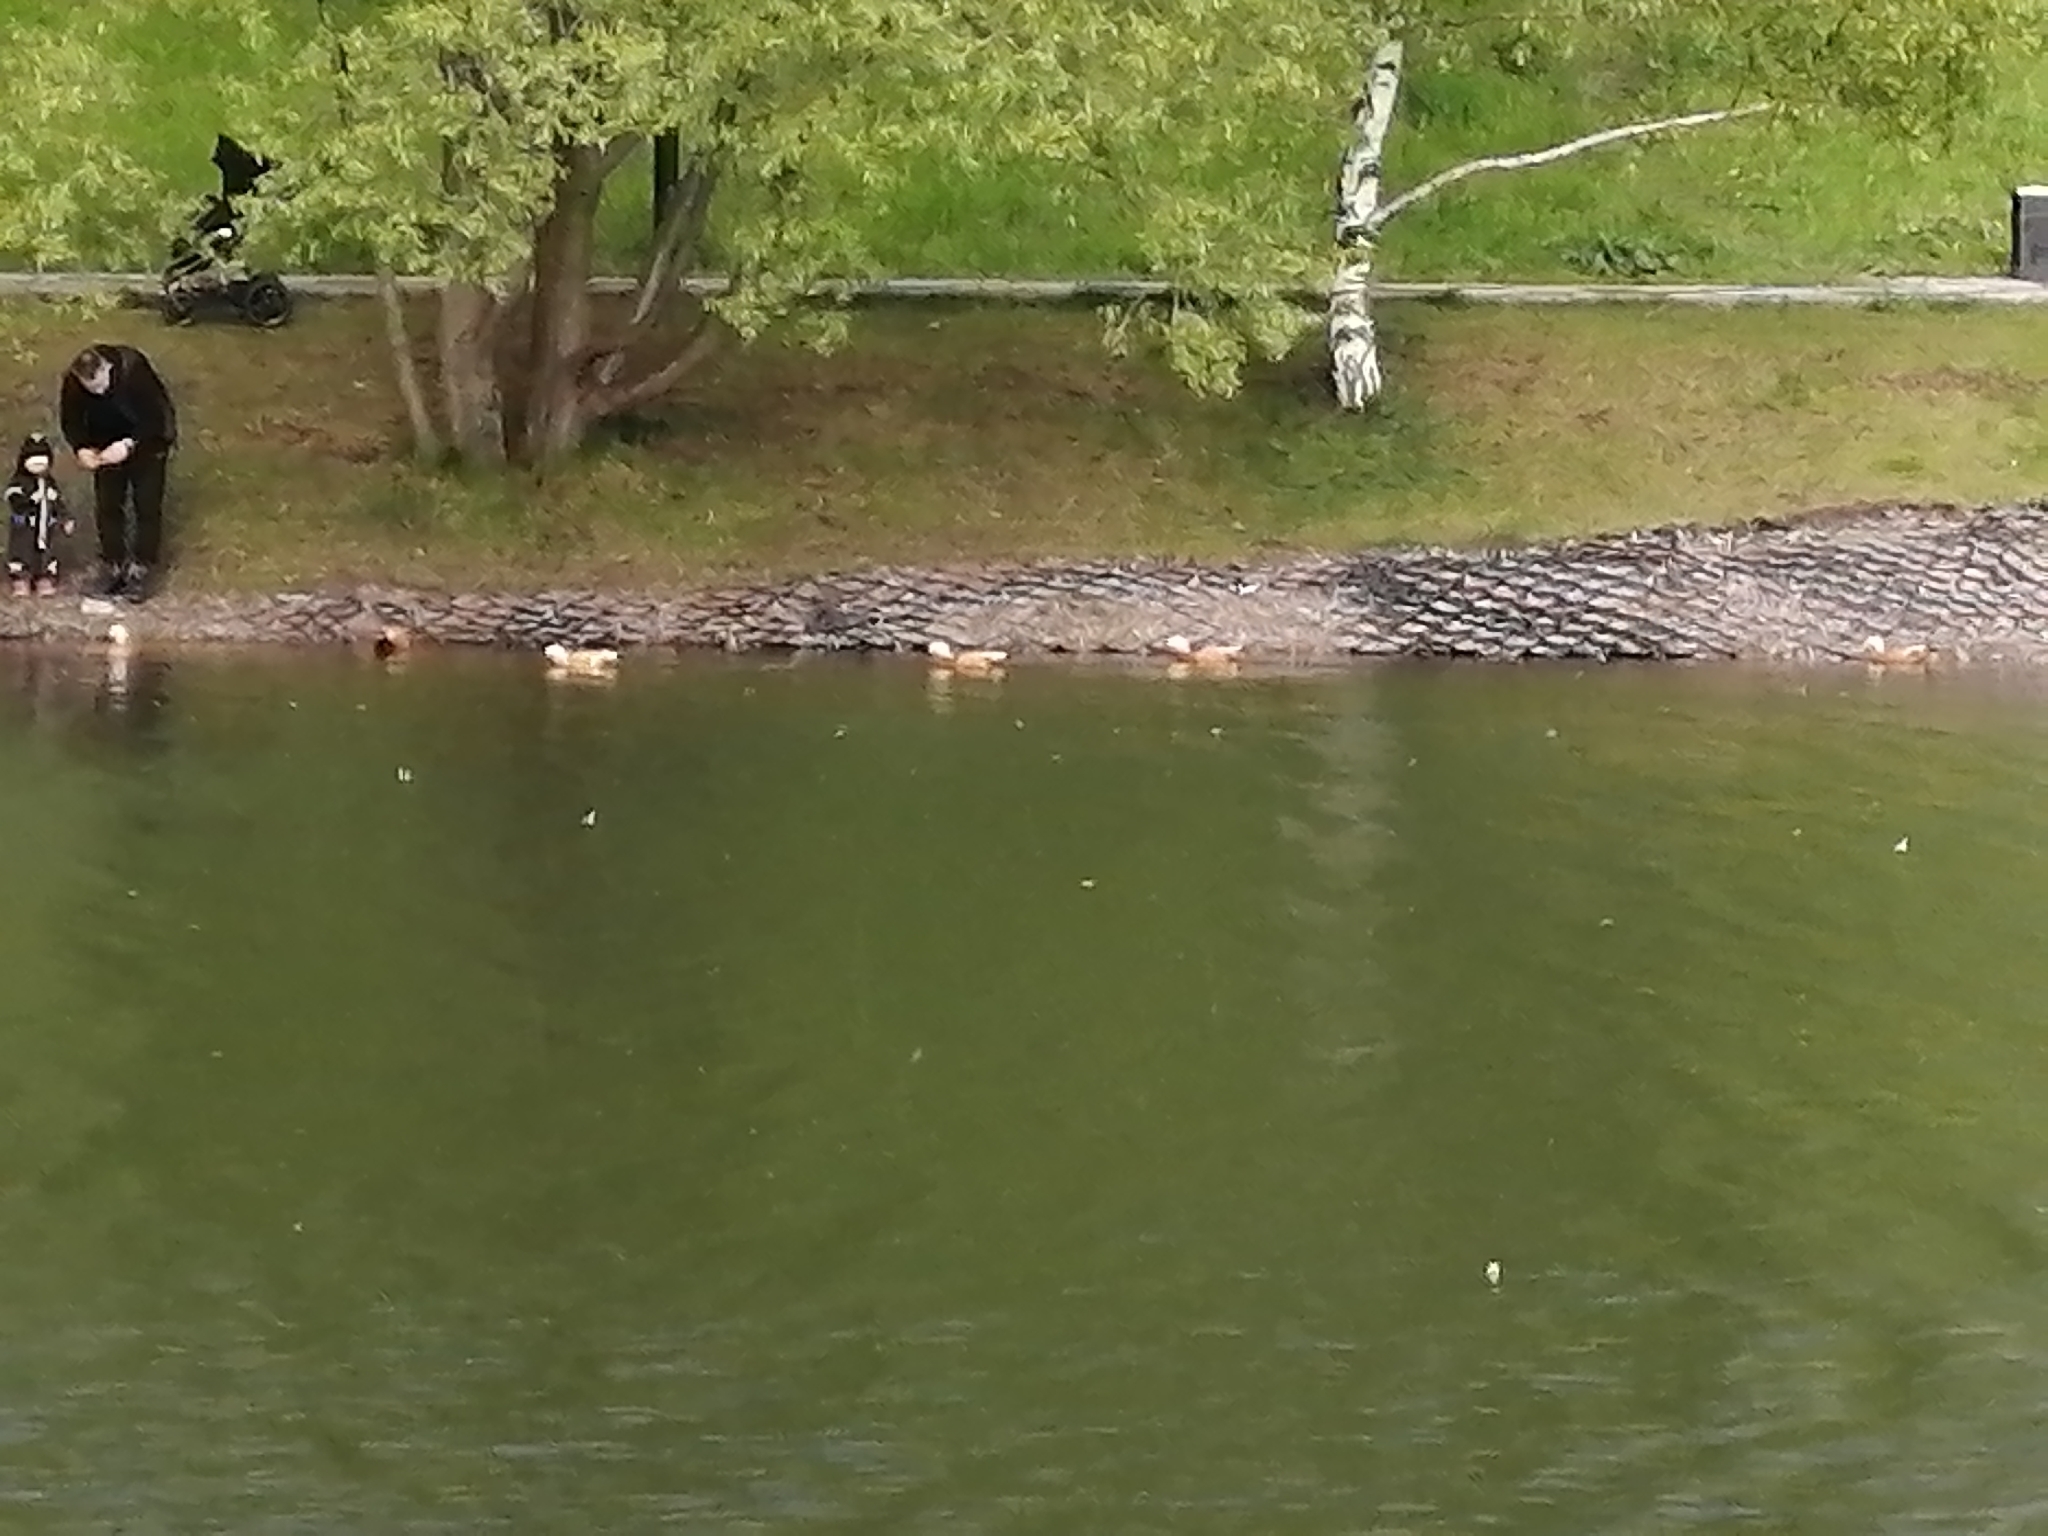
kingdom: Animalia
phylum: Chordata
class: Aves
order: Anseriformes
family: Anatidae
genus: Tadorna
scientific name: Tadorna ferruginea
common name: Ruddy shelduck
